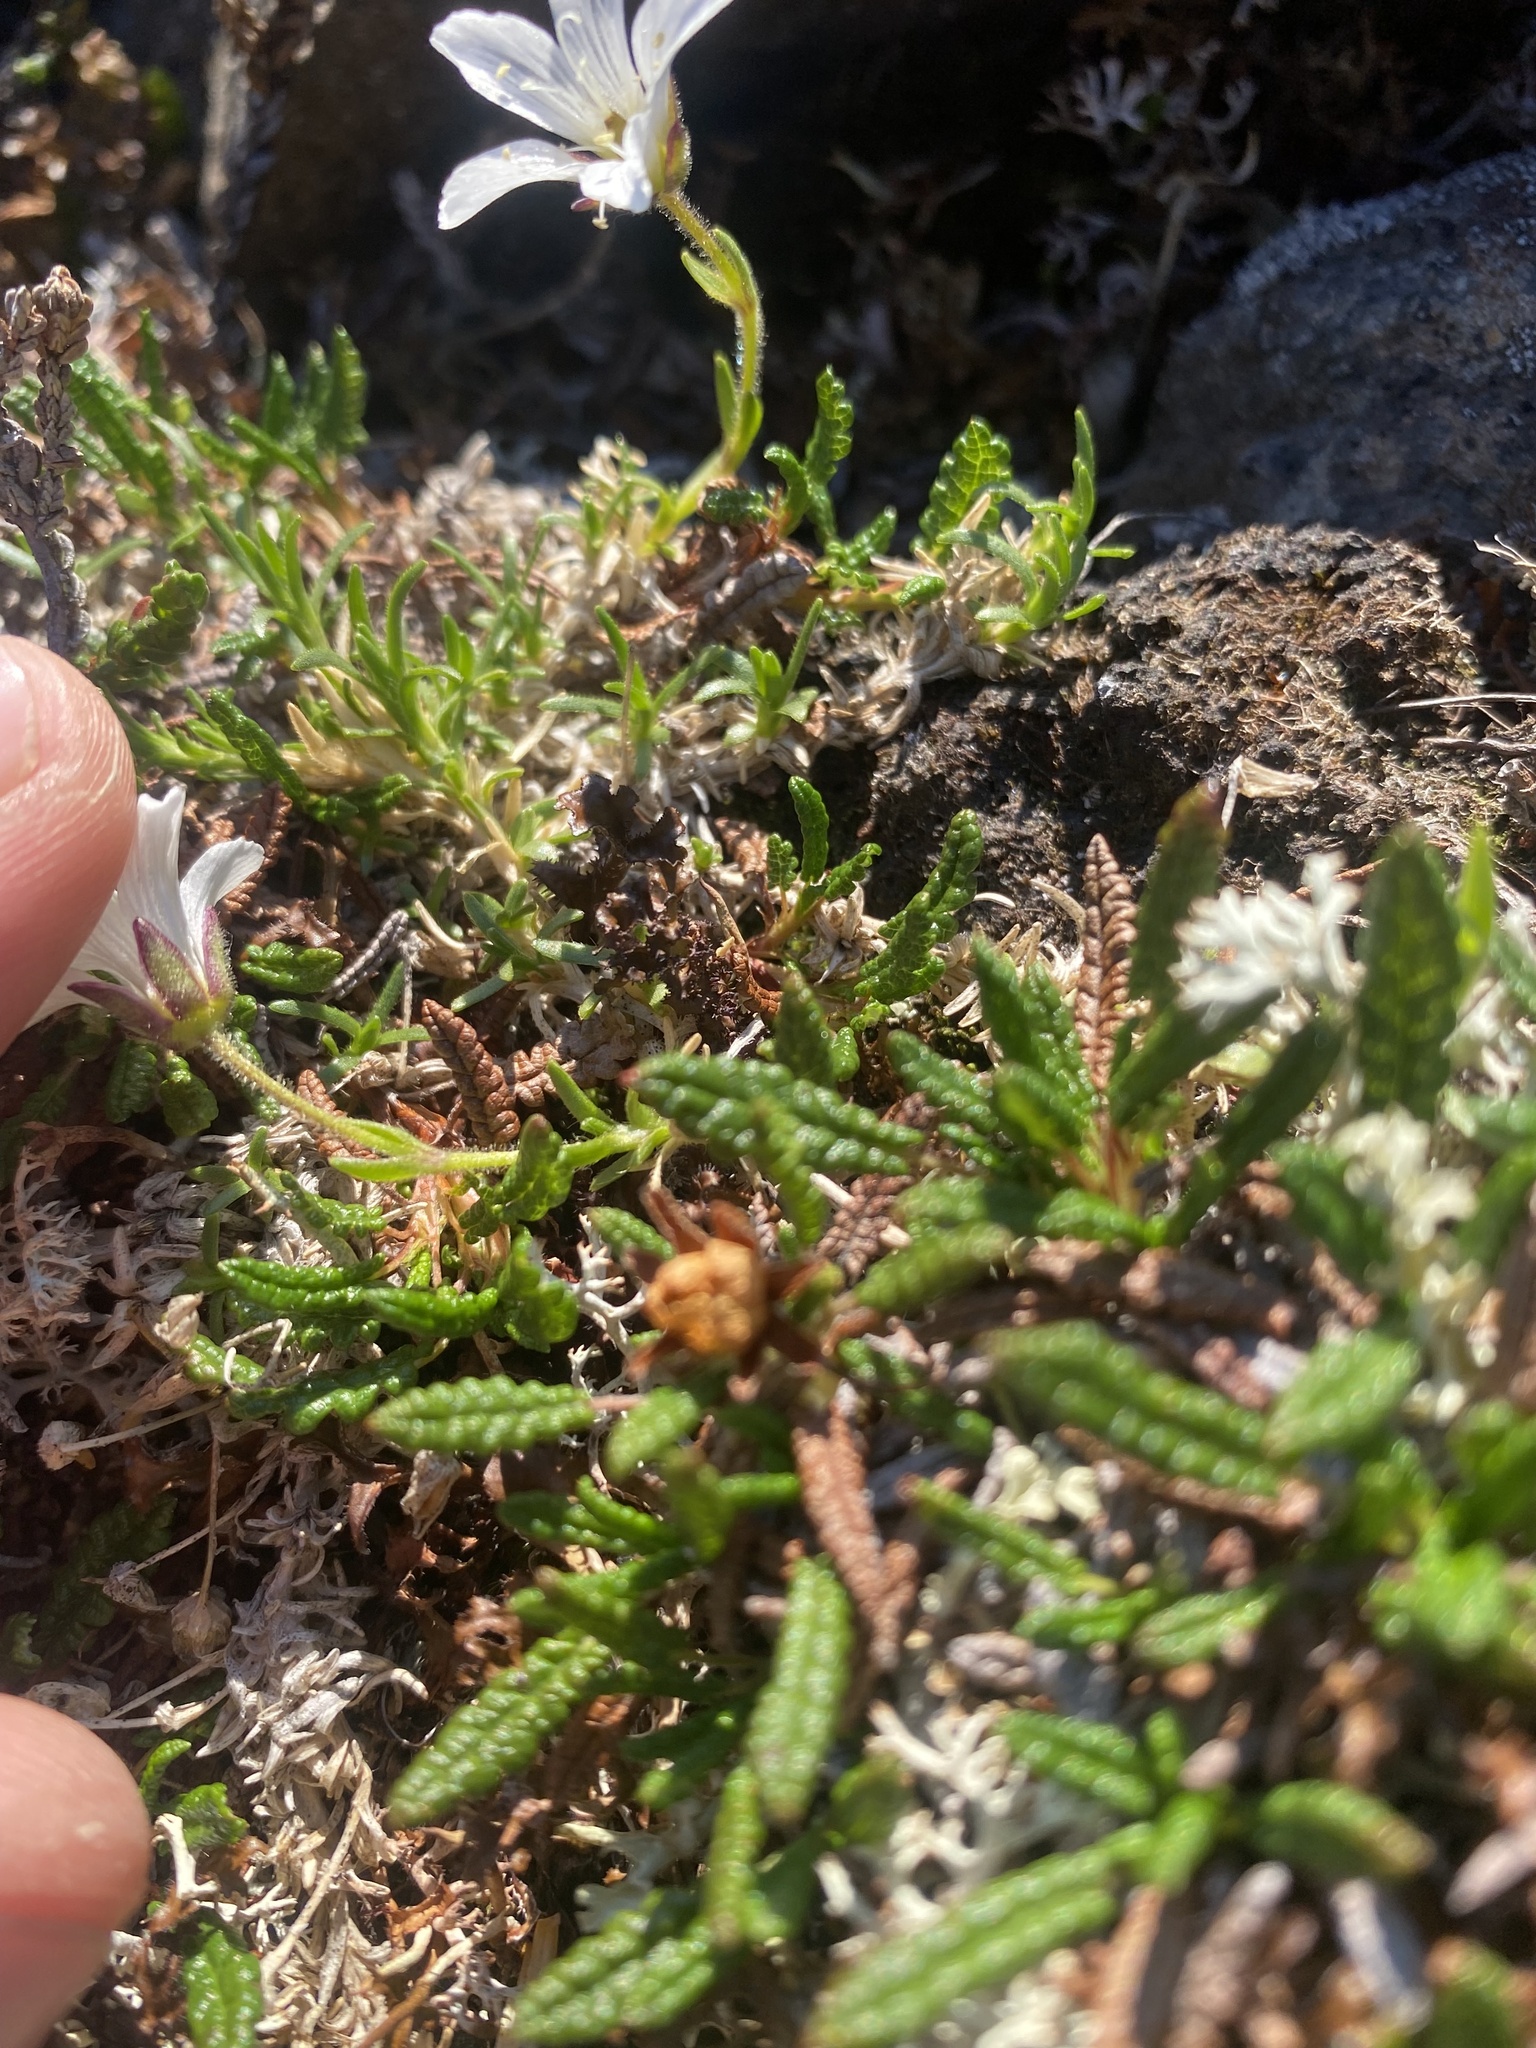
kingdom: Plantae
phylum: Tracheophyta
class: Magnoliopsida
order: Caryophyllales
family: Caryophyllaceae
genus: Cherleria
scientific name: Cherleria arctica
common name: Arctic sandwort
